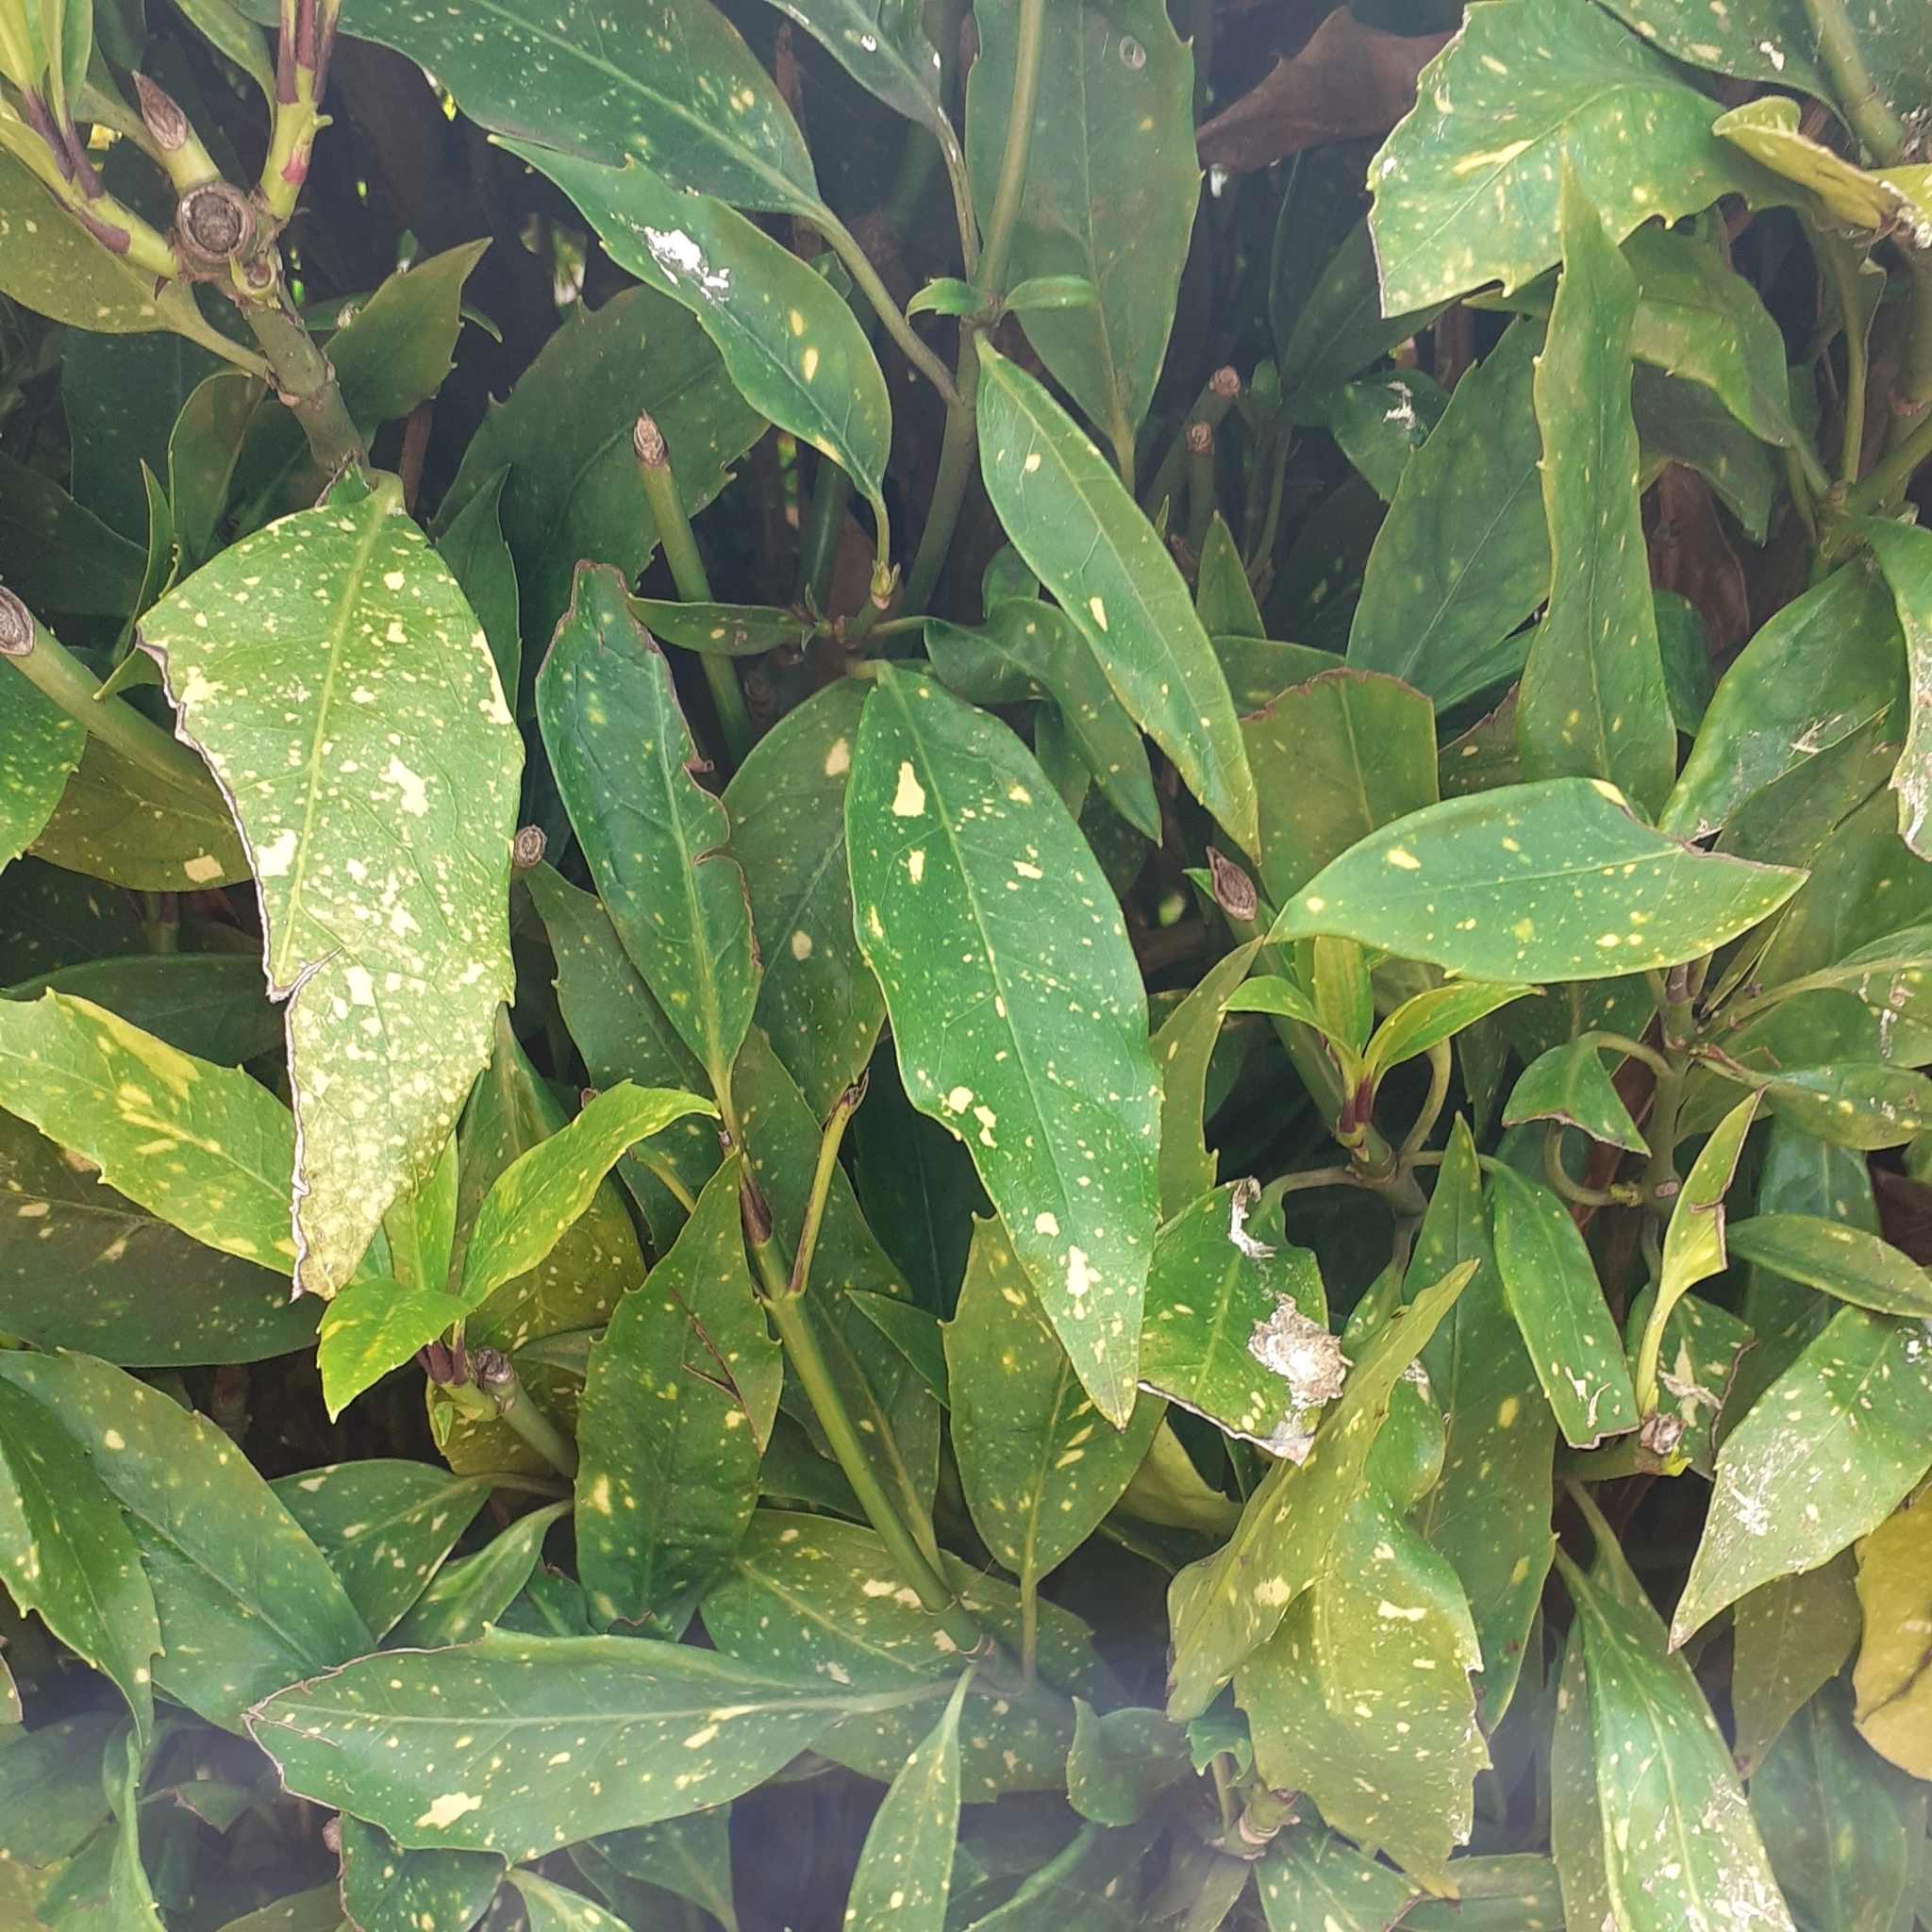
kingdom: Plantae
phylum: Tracheophyta
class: Magnoliopsida
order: Garryales
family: Garryaceae
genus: Aucuba
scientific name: Aucuba japonica
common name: Spotted-laurel
